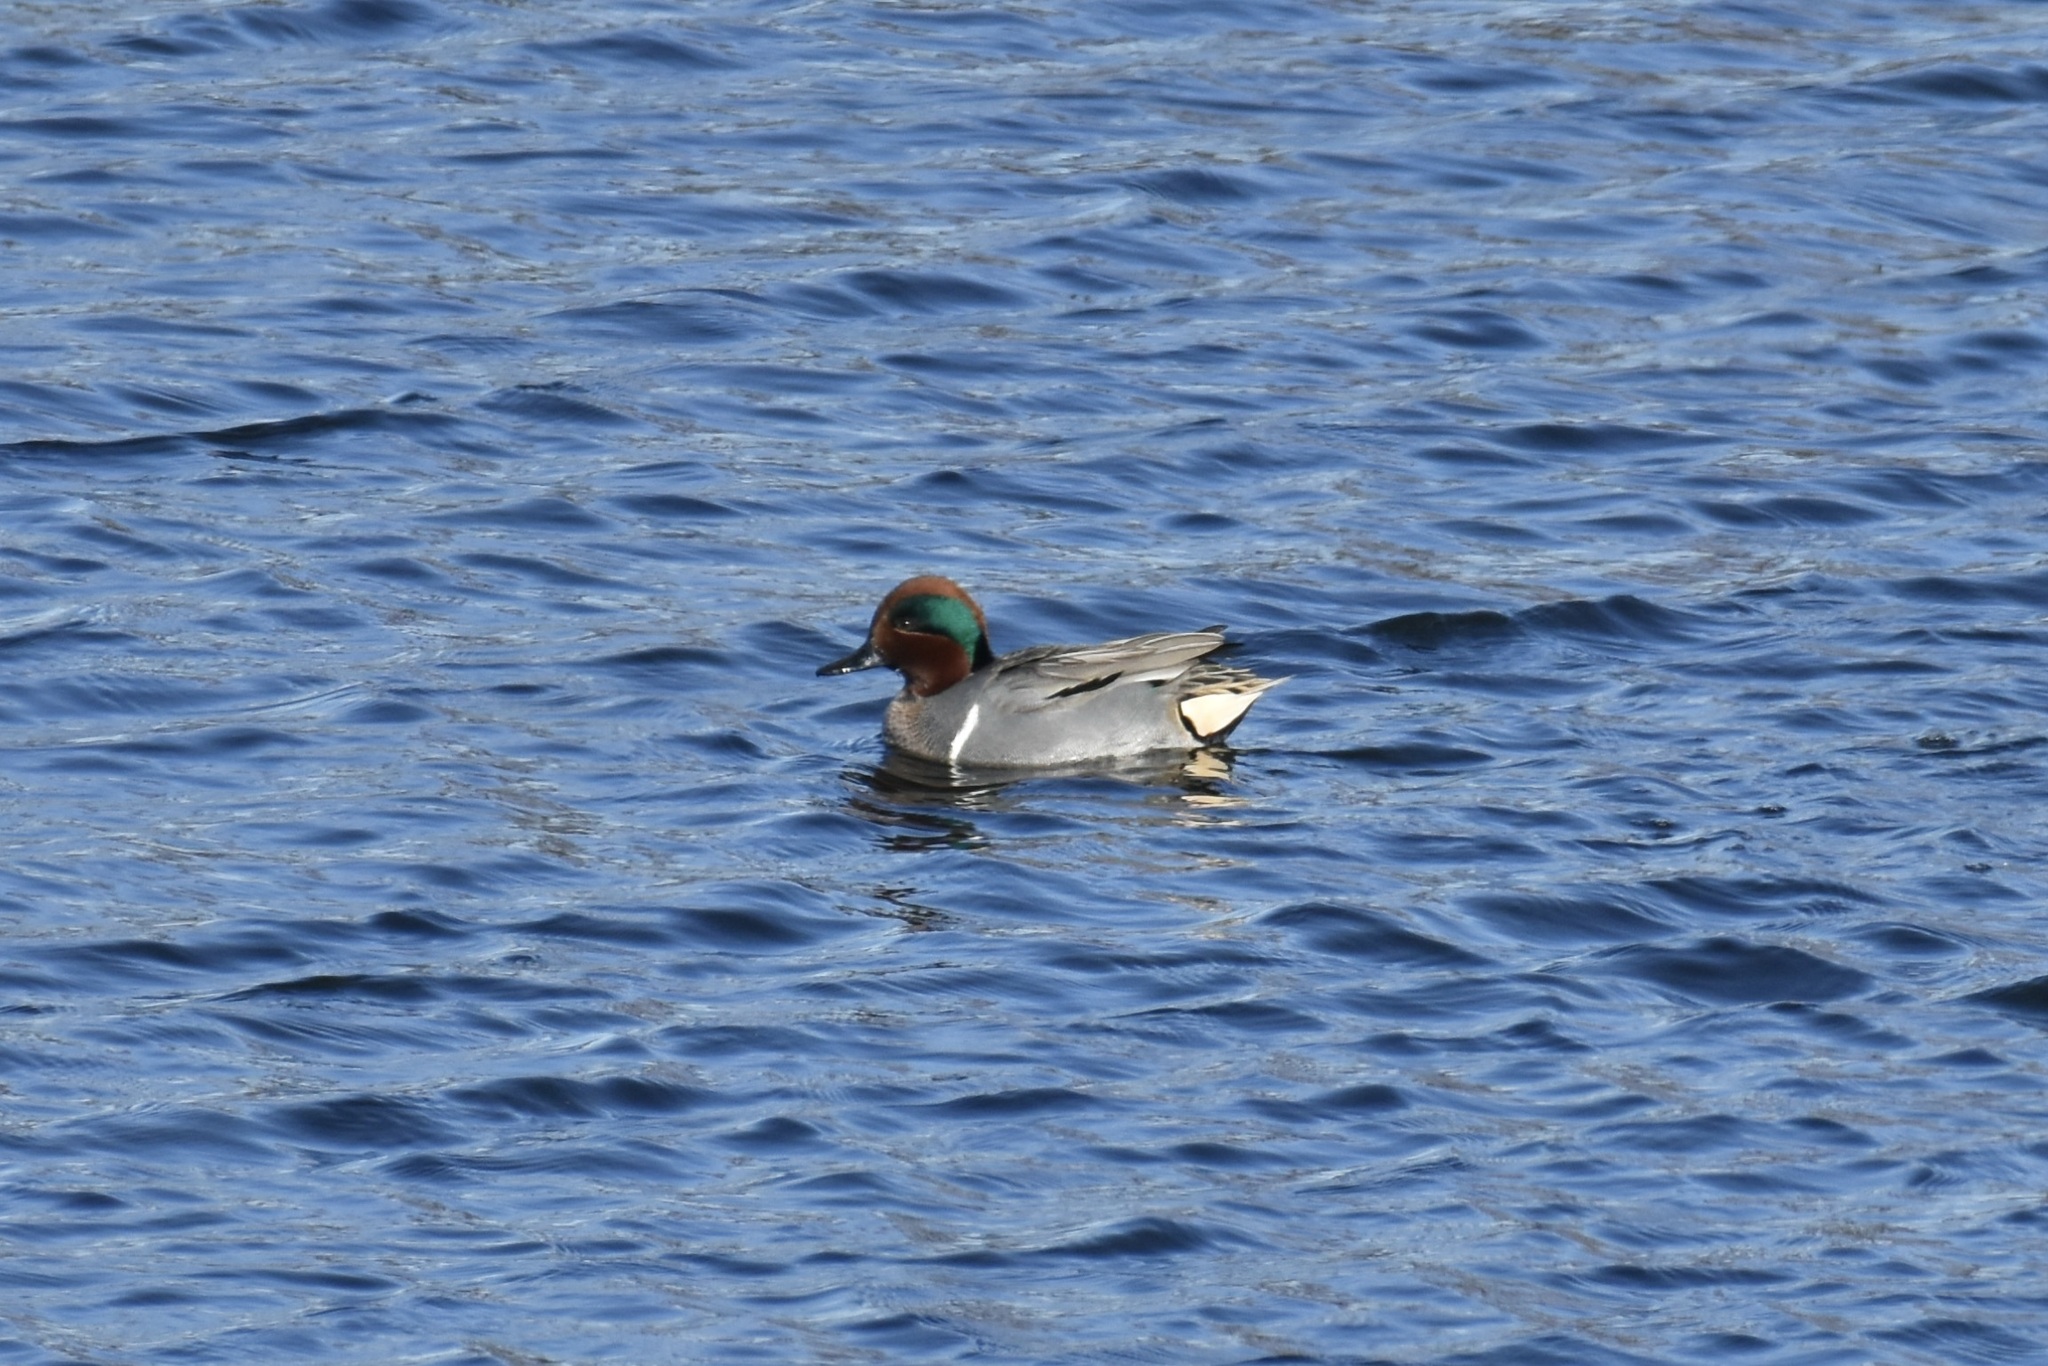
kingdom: Animalia
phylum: Chordata
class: Aves
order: Anseriformes
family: Anatidae
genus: Anas
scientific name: Anas crecca
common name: Eurasian teal
